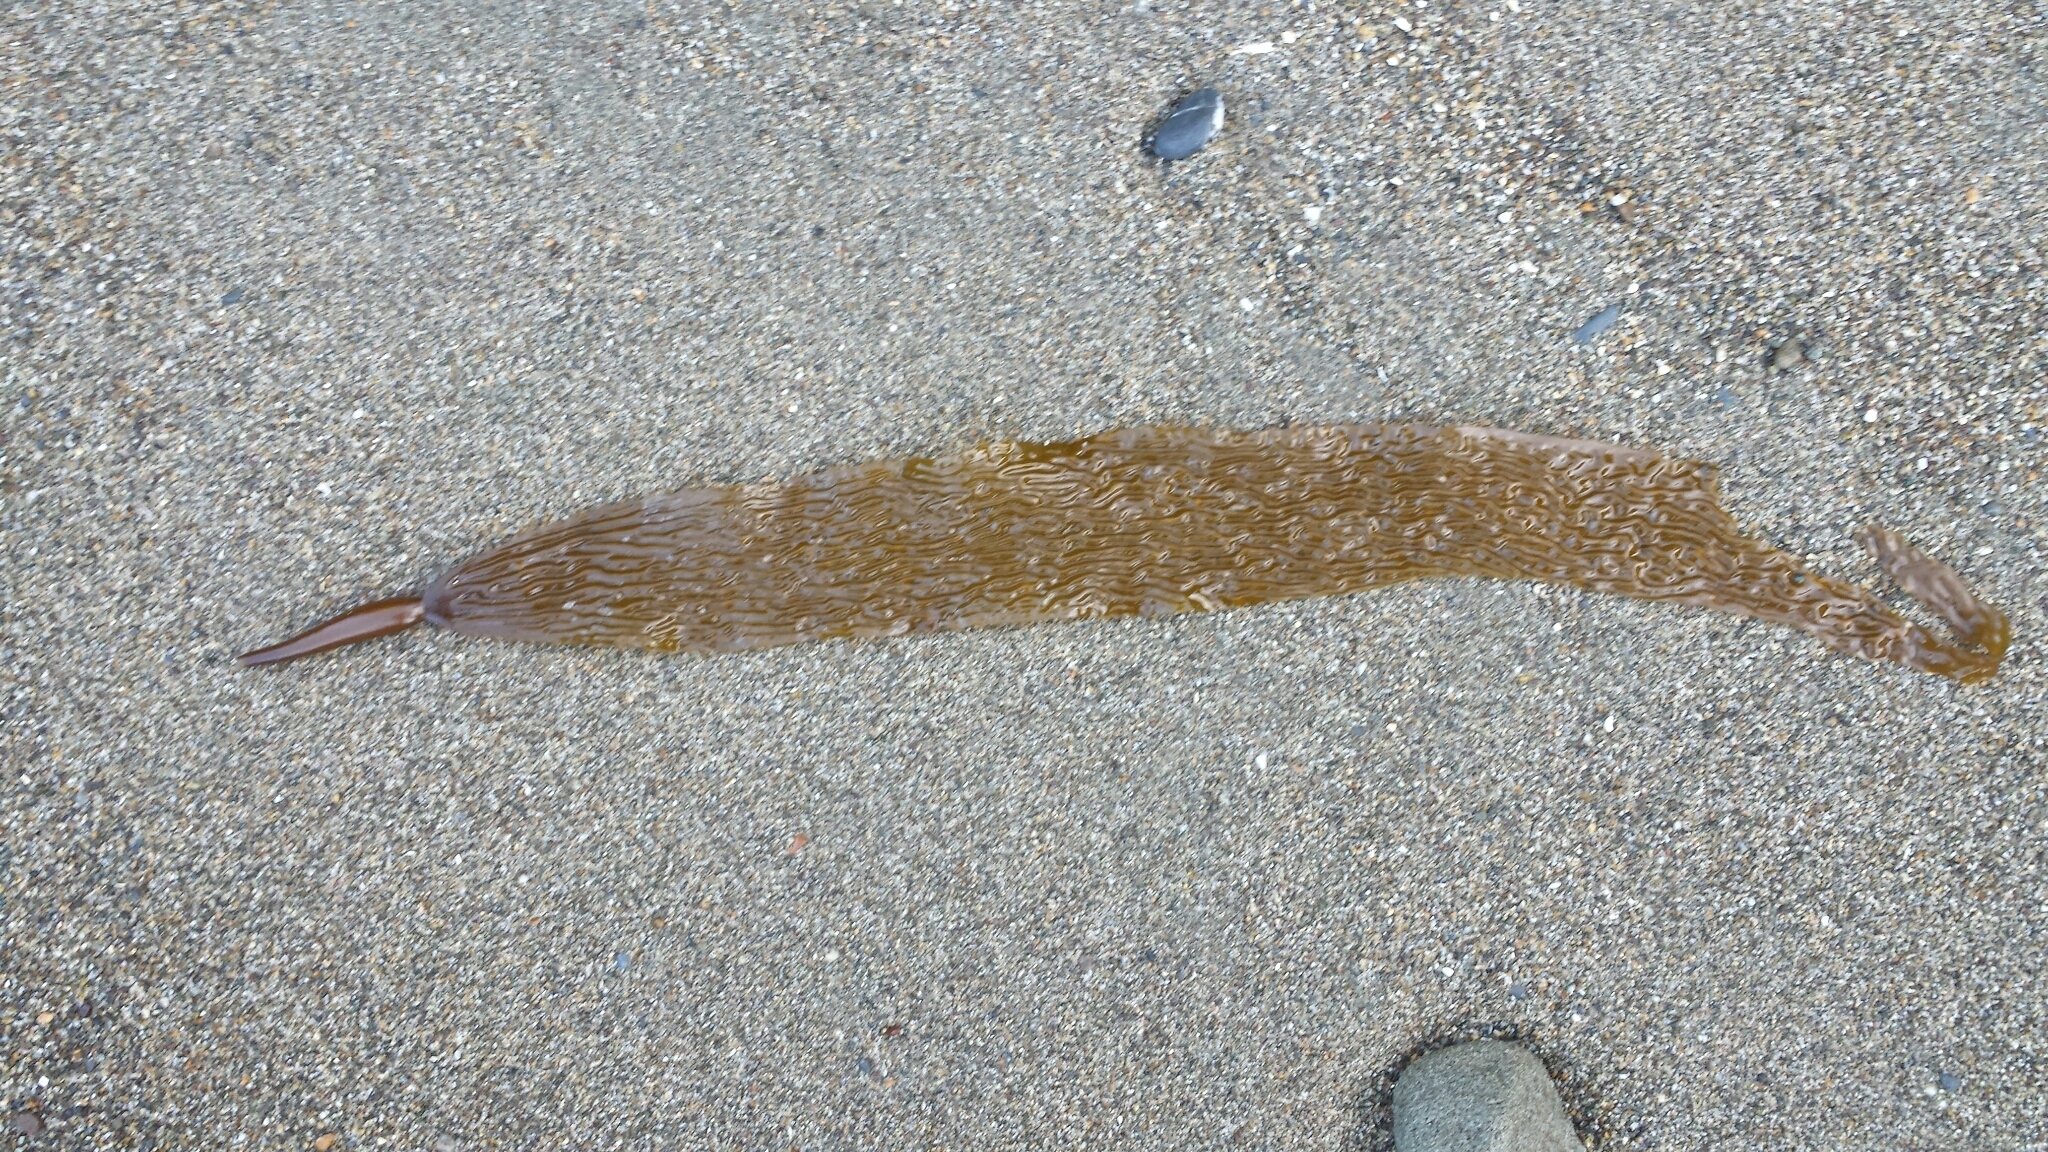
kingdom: Chromista
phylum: Ochrophyta
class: Phaeophyceae
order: Laminariales
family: Laminariaceae
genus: Macrocystis
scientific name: Macrocystis pyrifera
